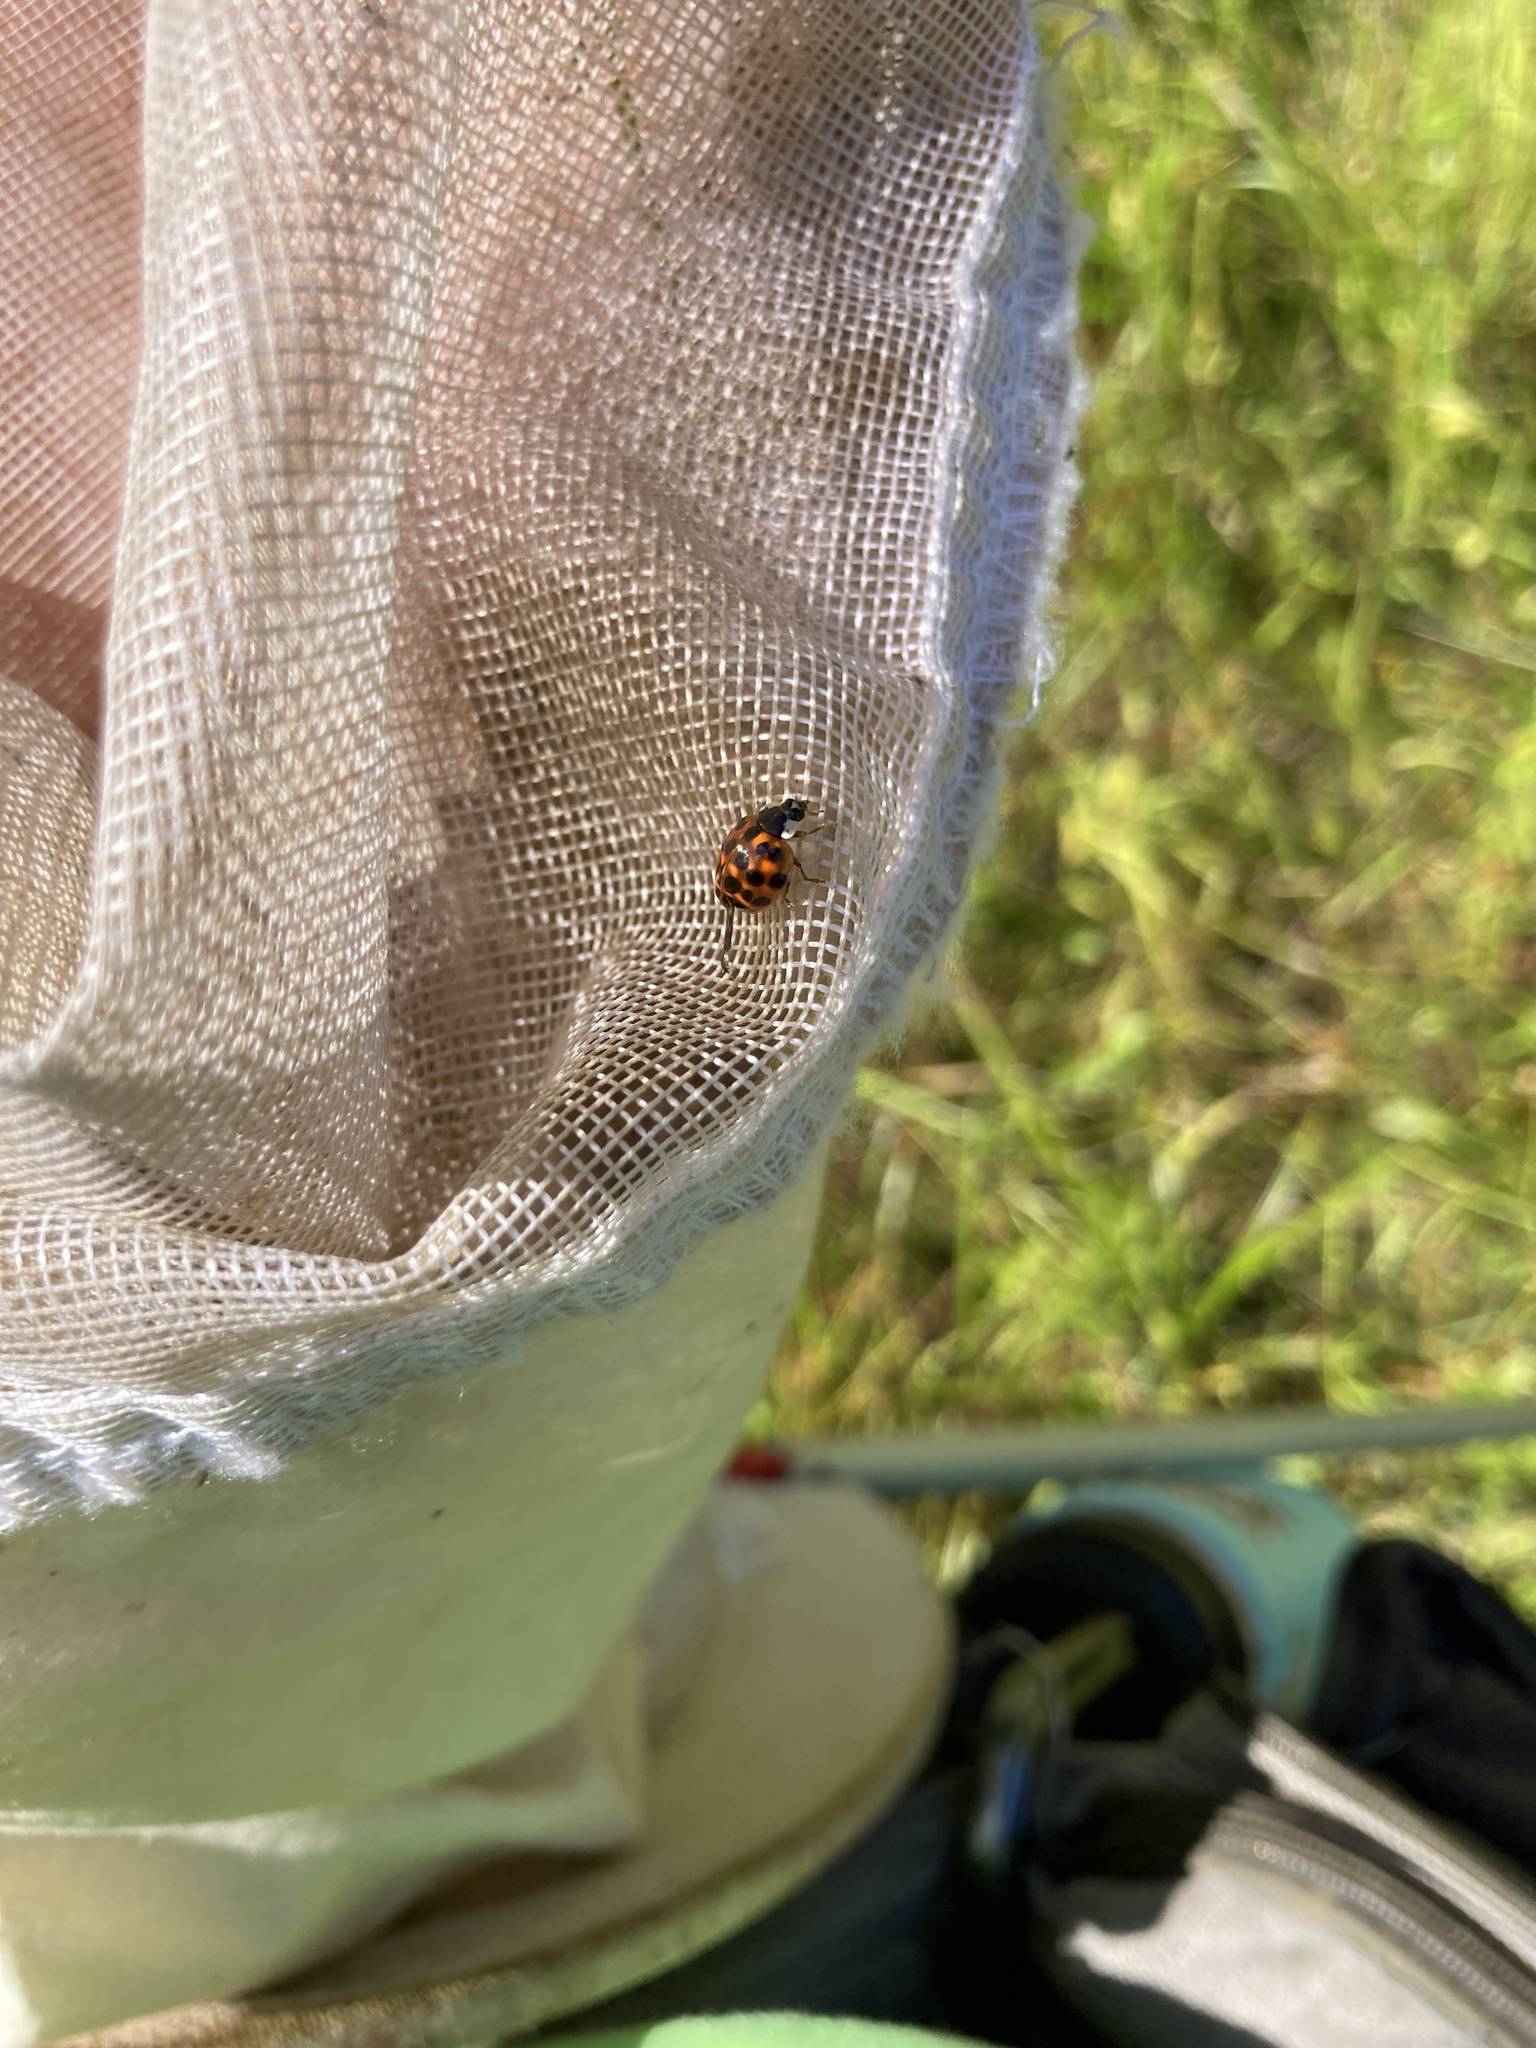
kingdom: Animalia
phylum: Arthropoda
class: Insecta
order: Coleoptera
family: Coccinellidae
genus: Harmonia
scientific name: Harmonia axyridis
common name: Harlequin ladybird
